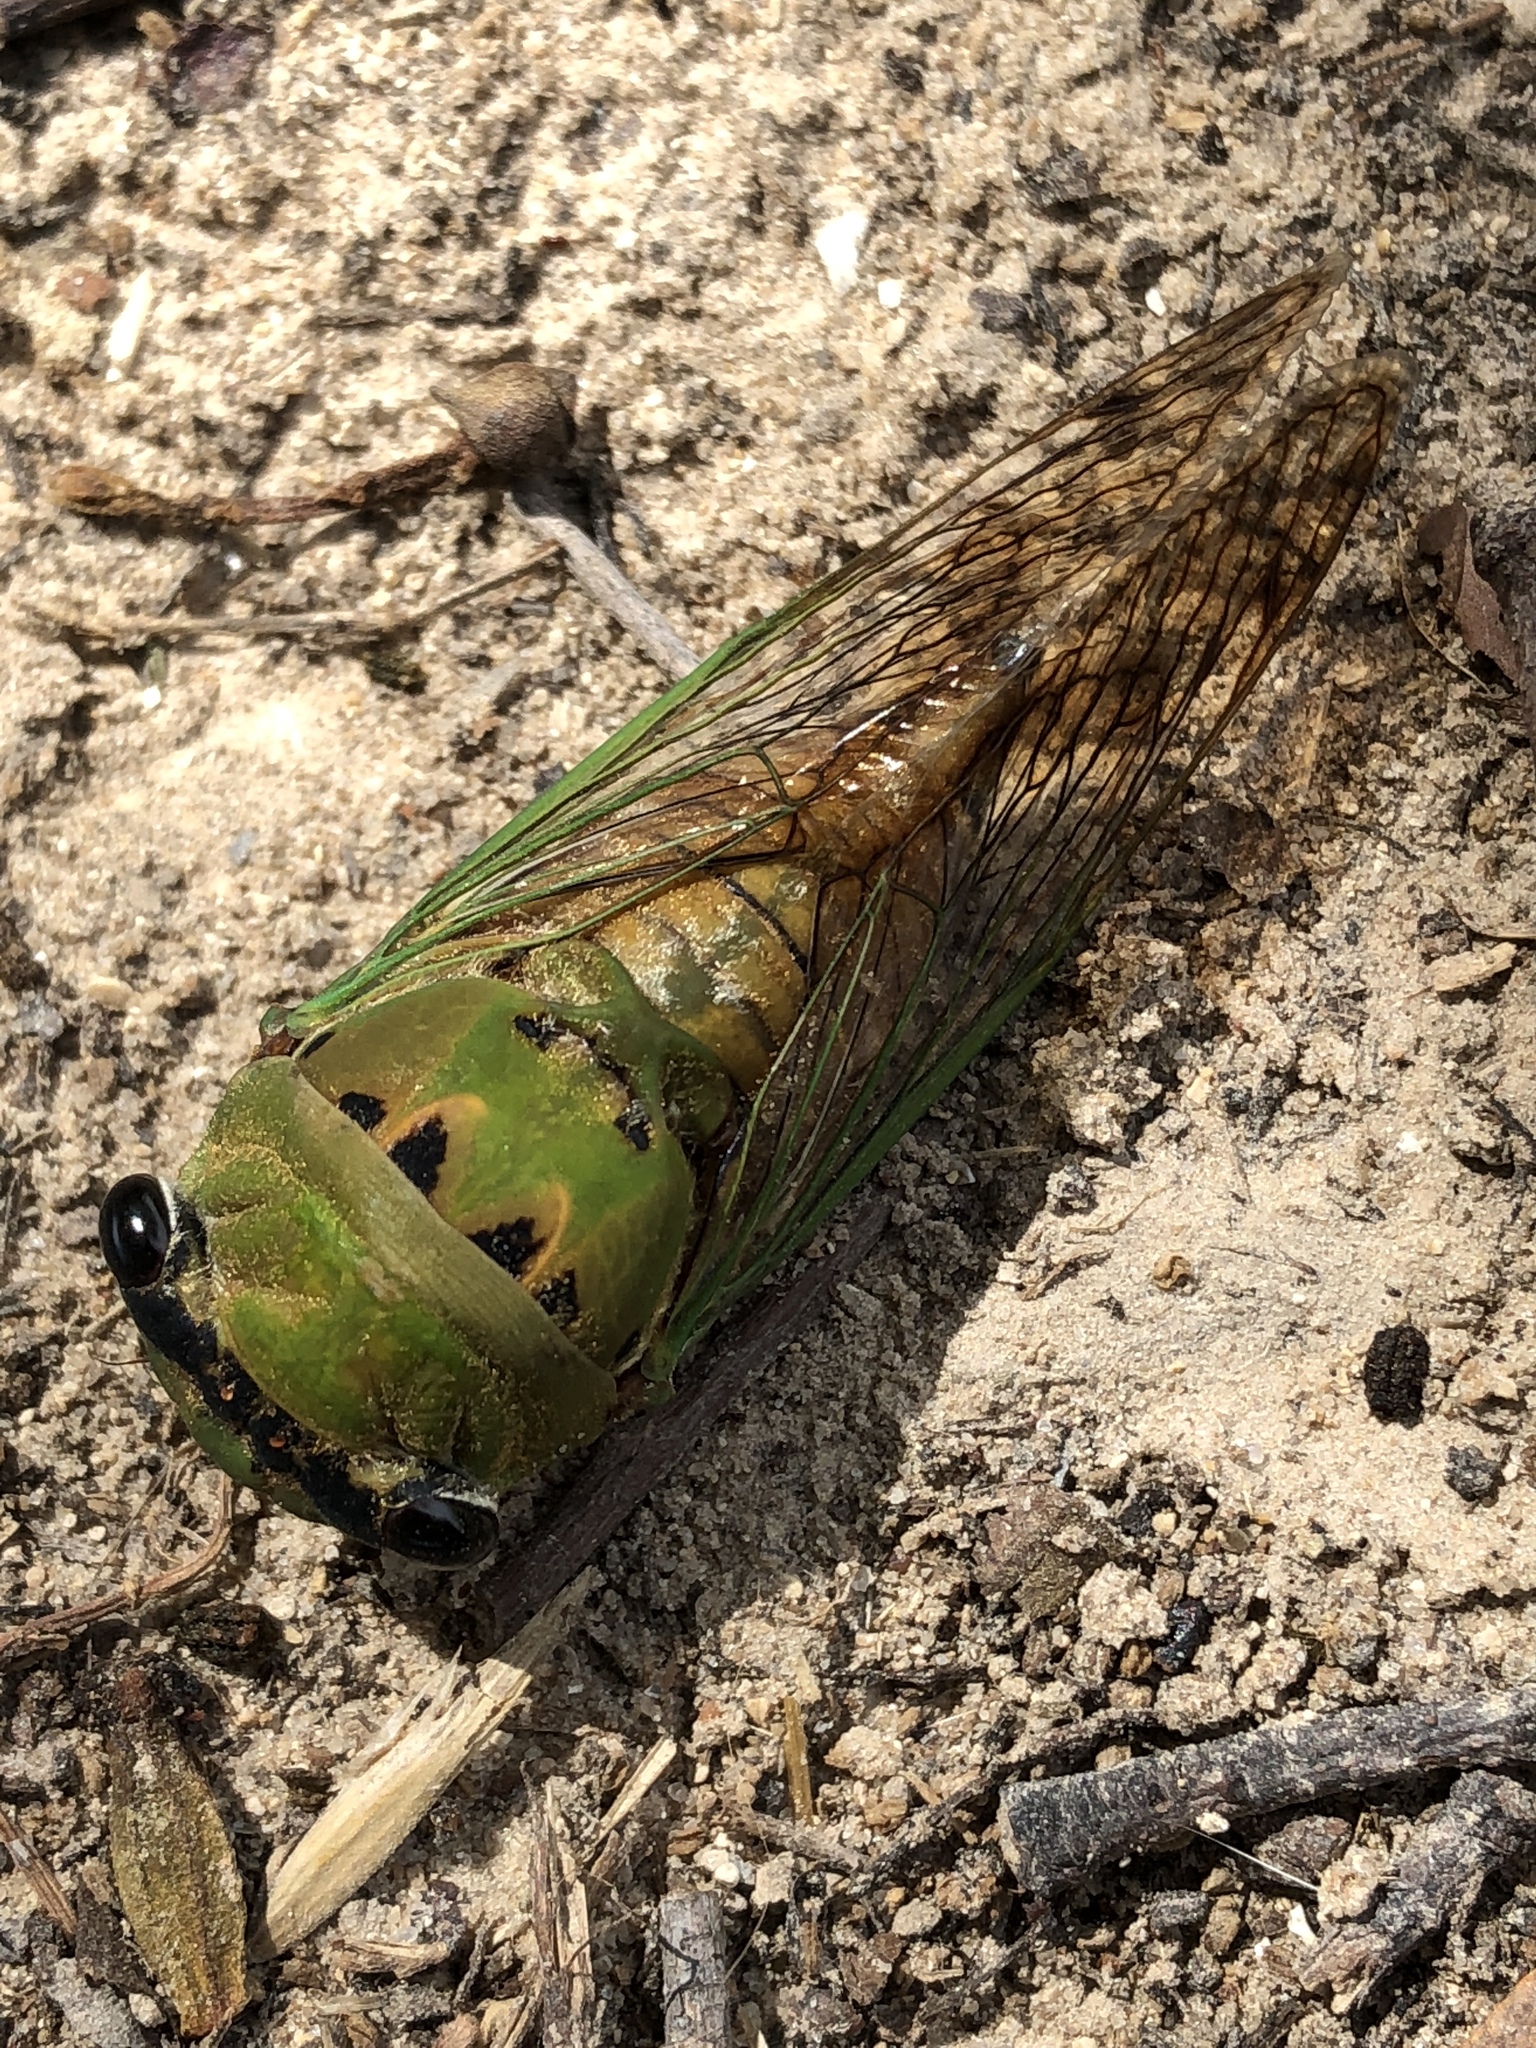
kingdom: Animalia
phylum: Arthropoda
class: Insecta
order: Hemiptera
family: Cicadidae
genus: Neotibicen
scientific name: Neotibicen superbus
